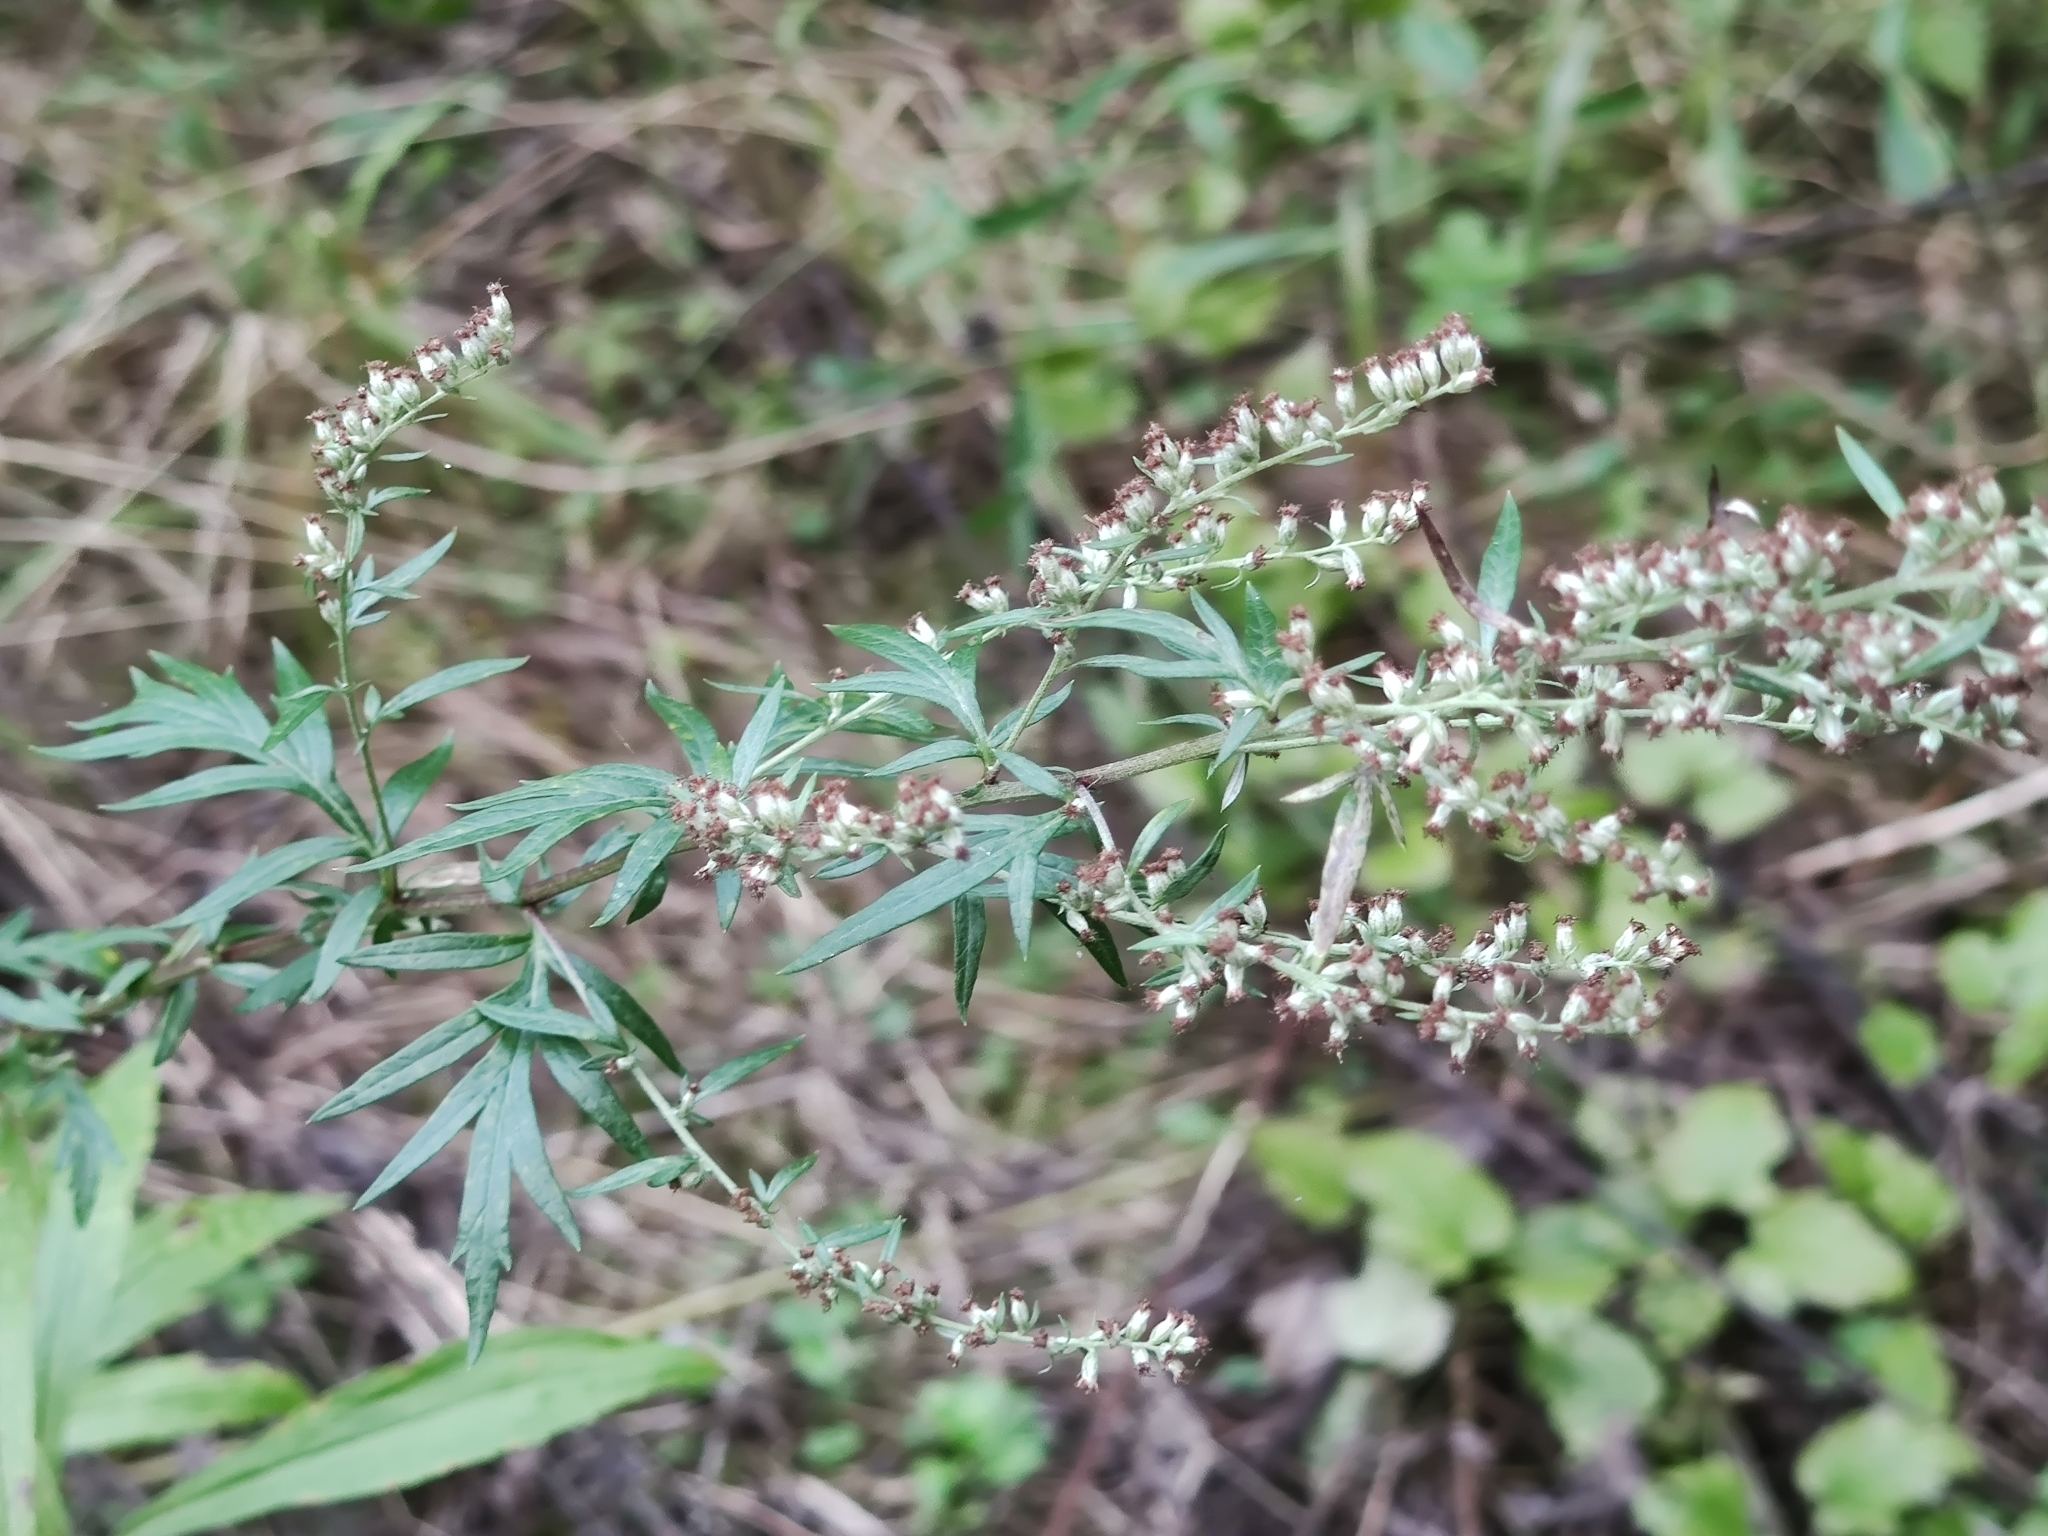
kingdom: Plantae
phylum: Tracheophyta
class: Magnoliopsida
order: Asterales
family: Asteraceae
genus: Artemisia
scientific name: Artemisia vulgaris
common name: Mugwort
